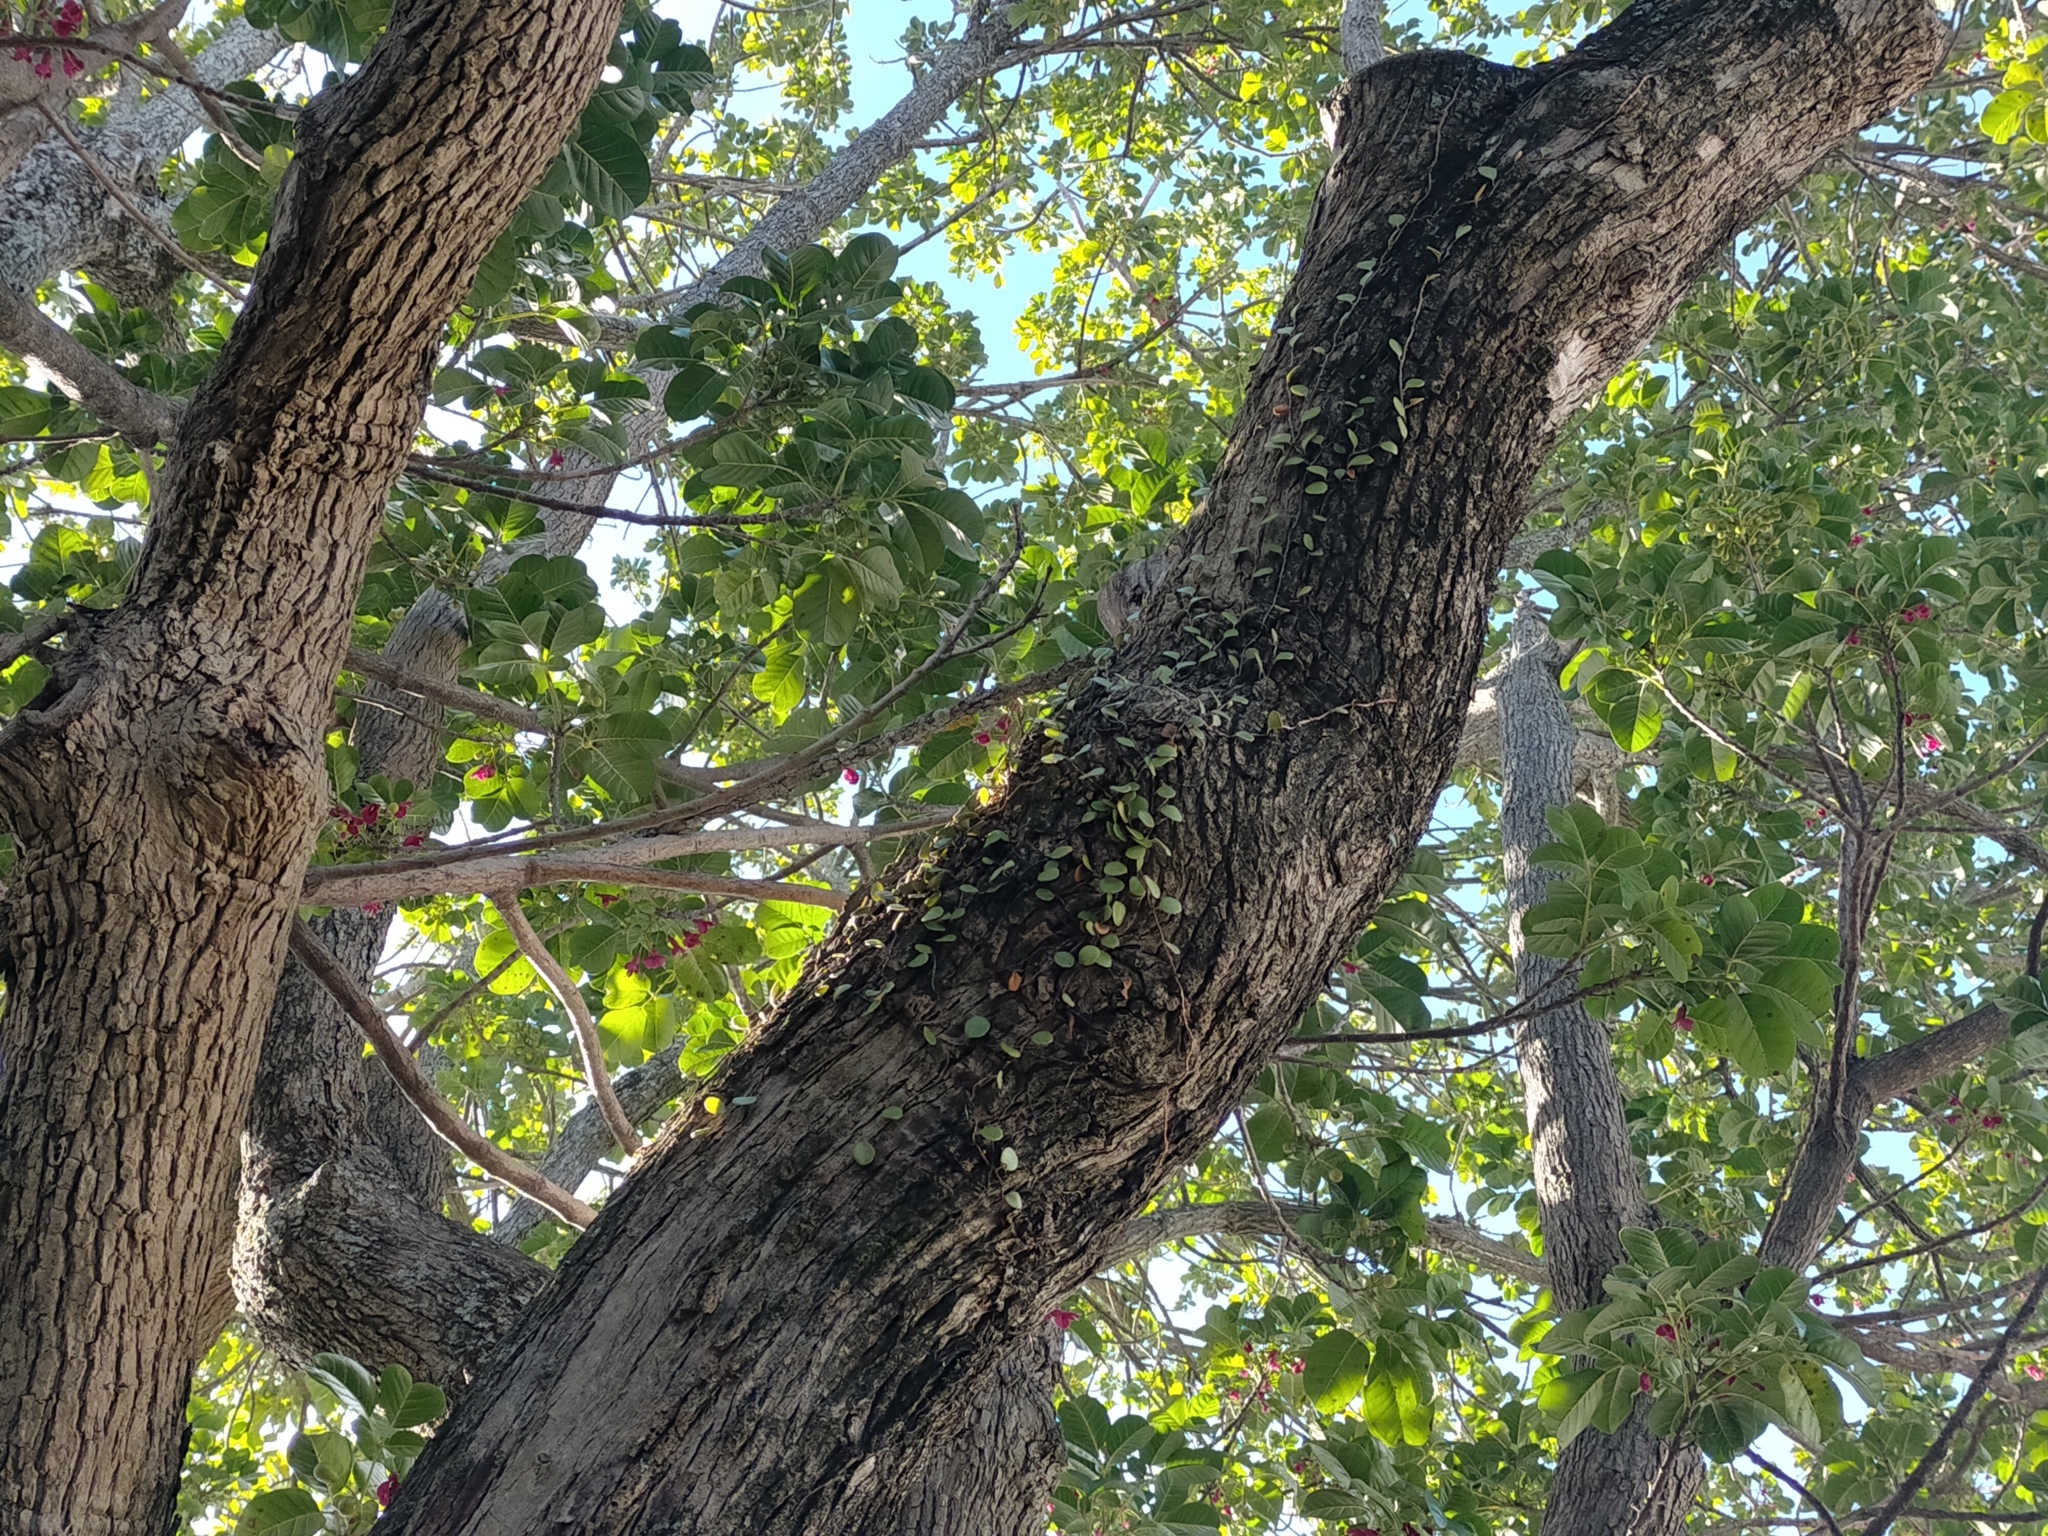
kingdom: Plantae
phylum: Tracheophyta
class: Polypodiopsida
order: Polypodiales
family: Polypodiaceae
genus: Pyrrosia
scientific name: Pyrrosia eleagnifolia
